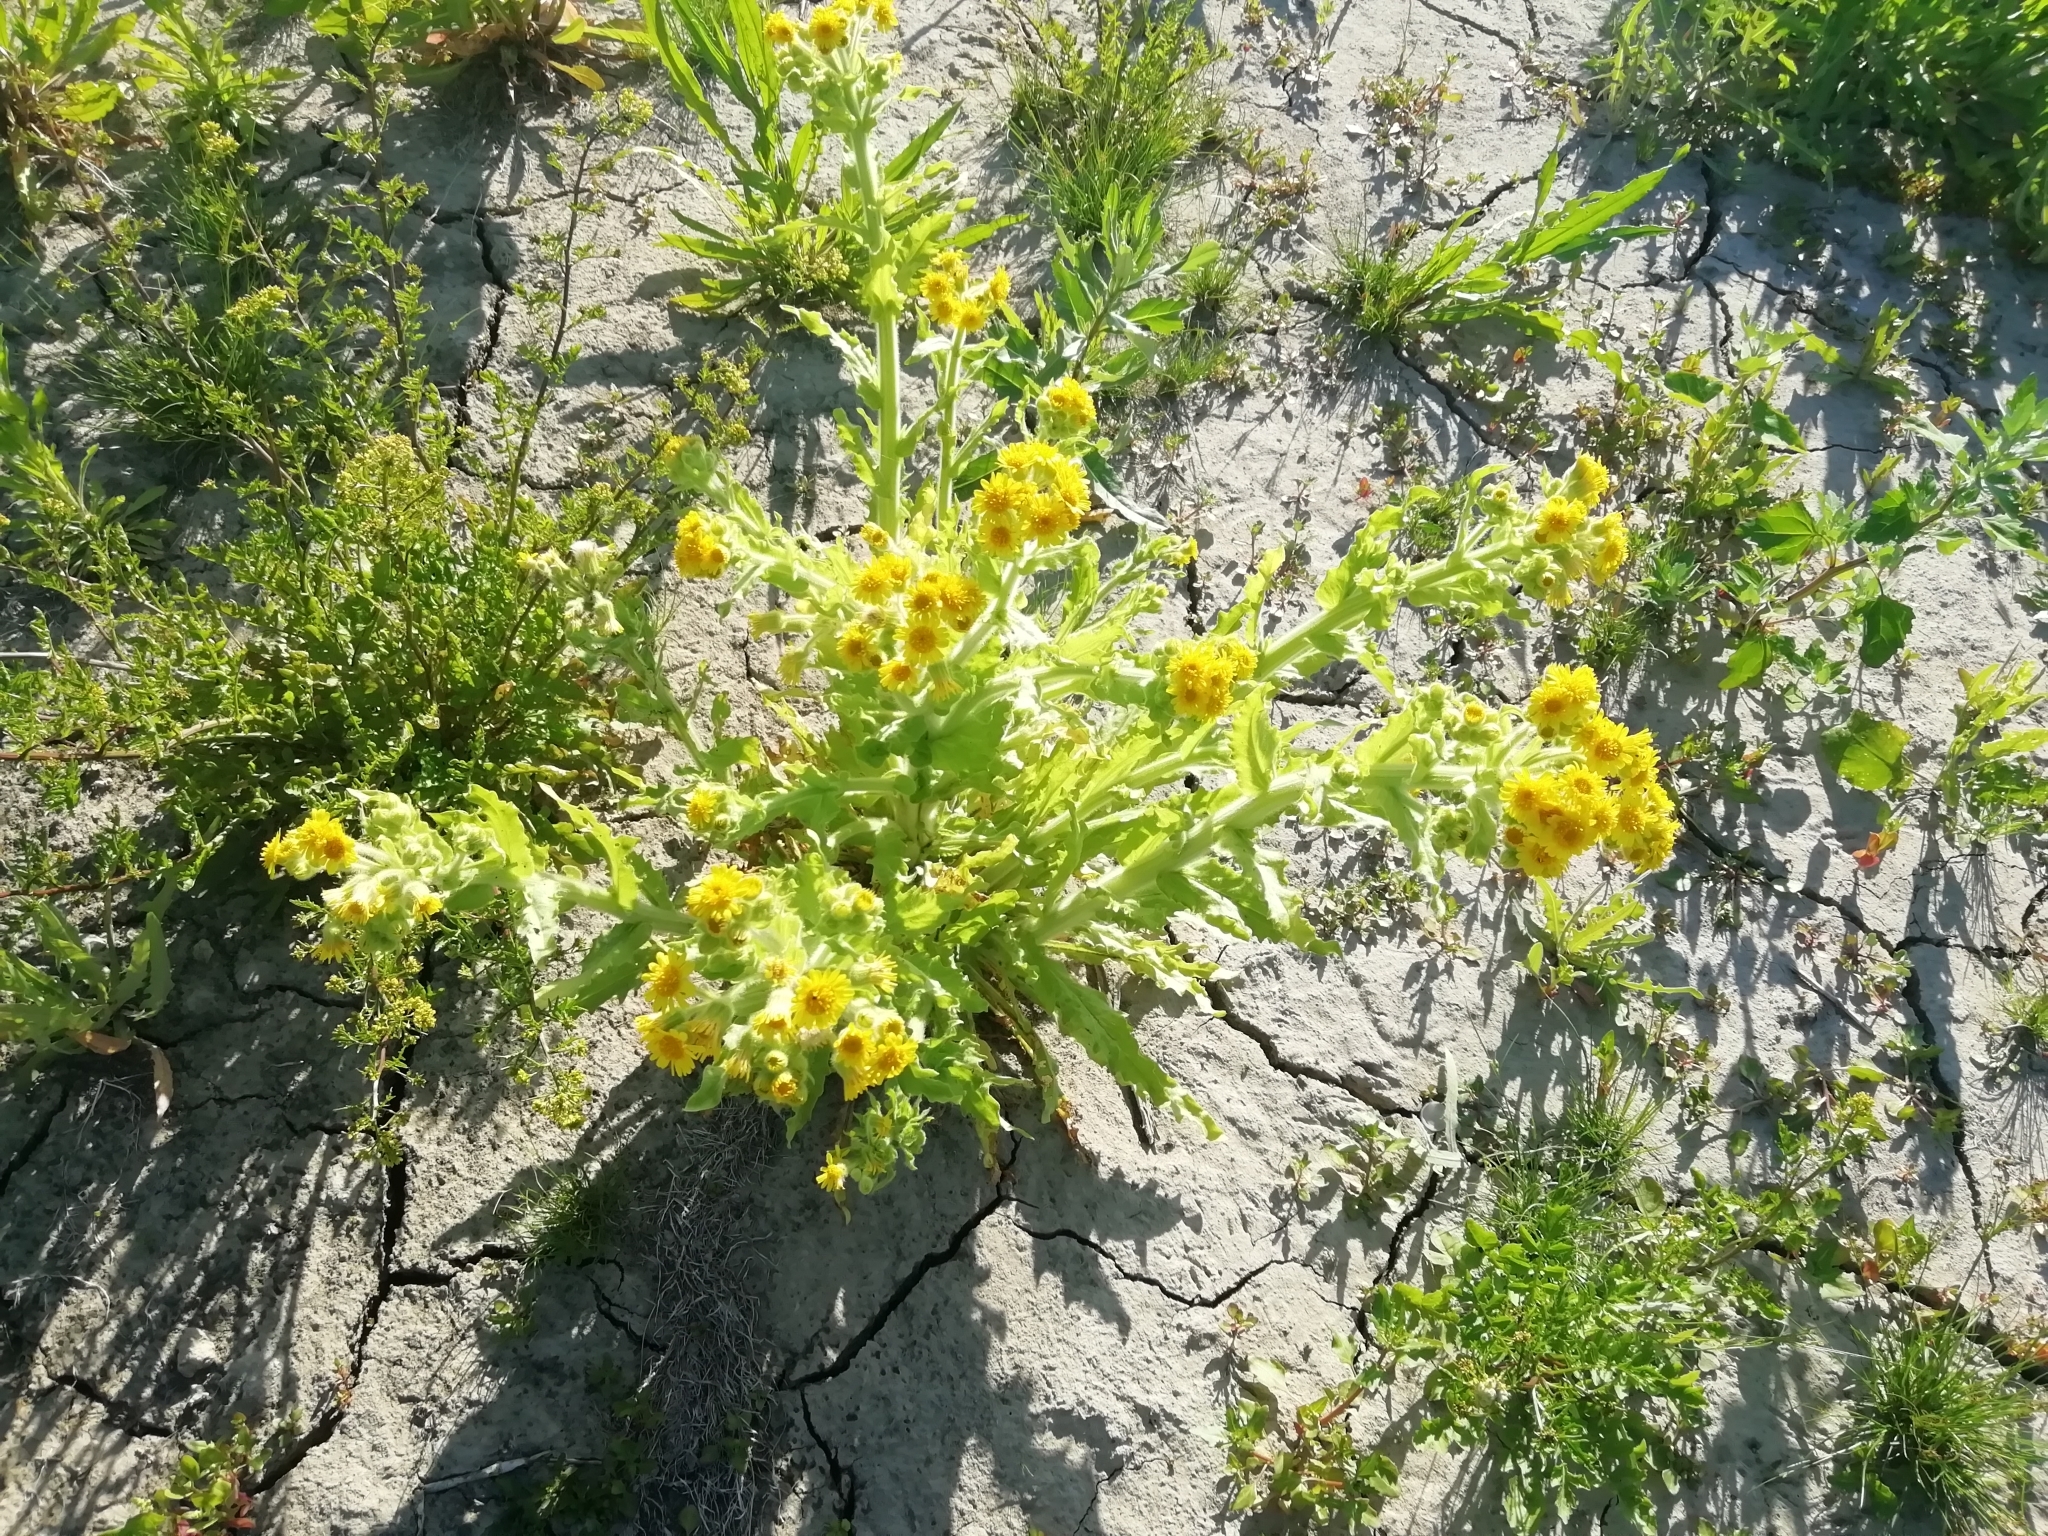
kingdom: Plantae
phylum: Tracheophyta
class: Magnoliopsida
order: Asterales
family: Asteraceae
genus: Tephroseris
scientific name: Tephroseris palustris
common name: Marsh fleawort
